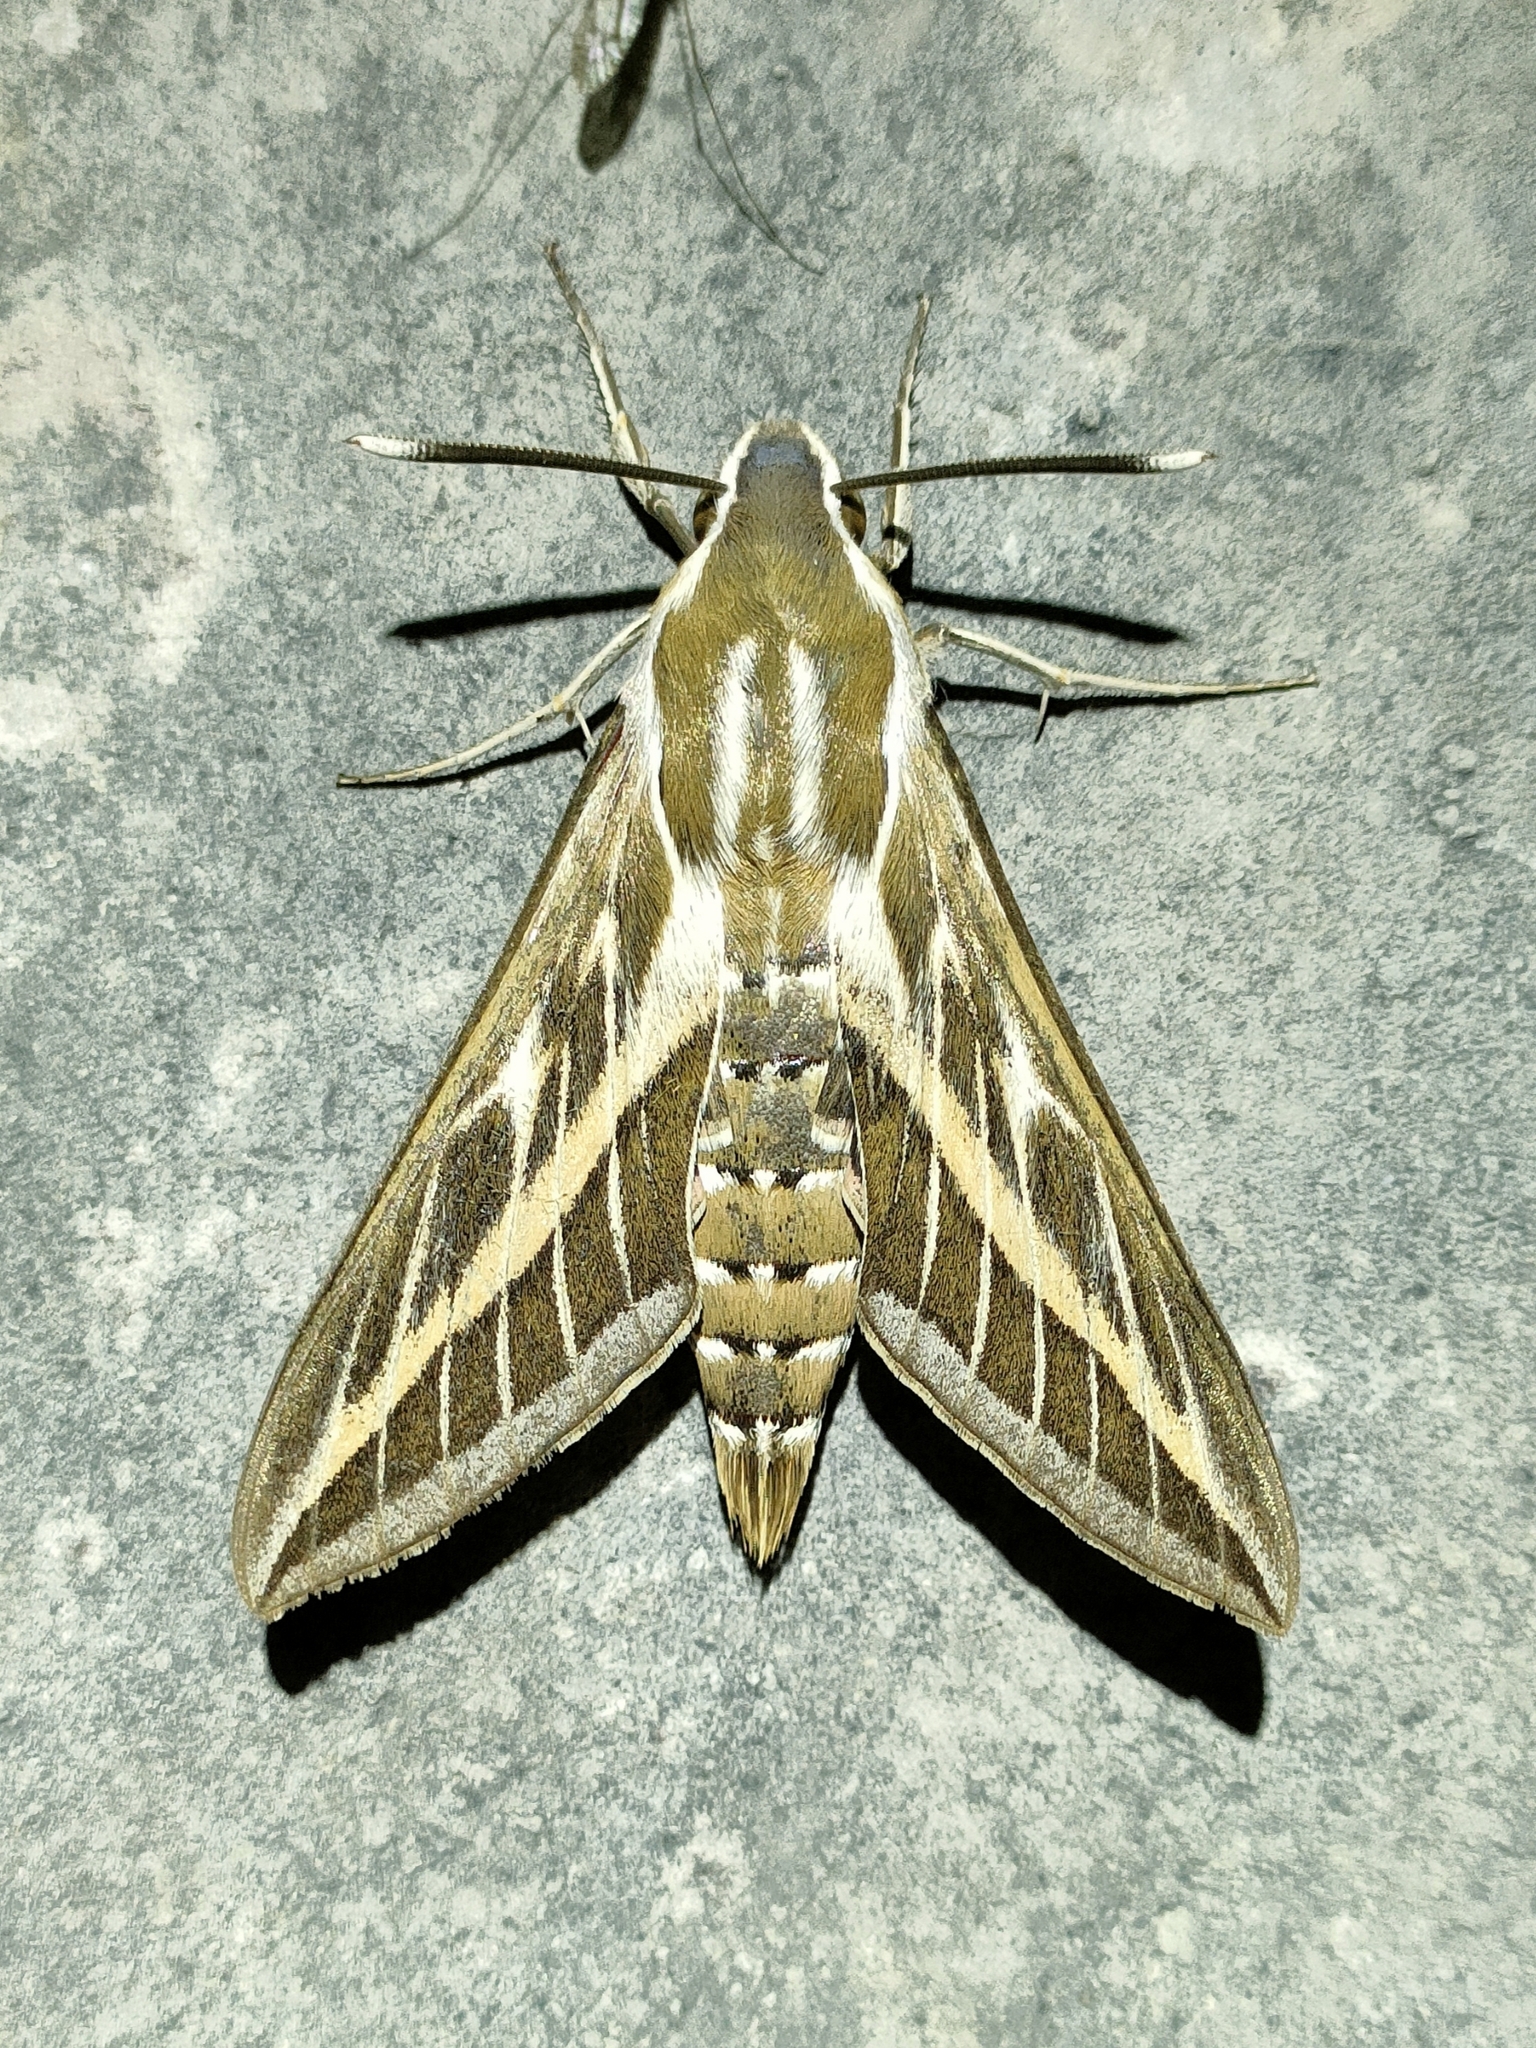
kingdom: Animalia
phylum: Arthropoda
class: Insecta
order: Lepidoptera
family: Sphingidae
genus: Hyles
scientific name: Hyles livornica
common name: Striped hawk-moth
